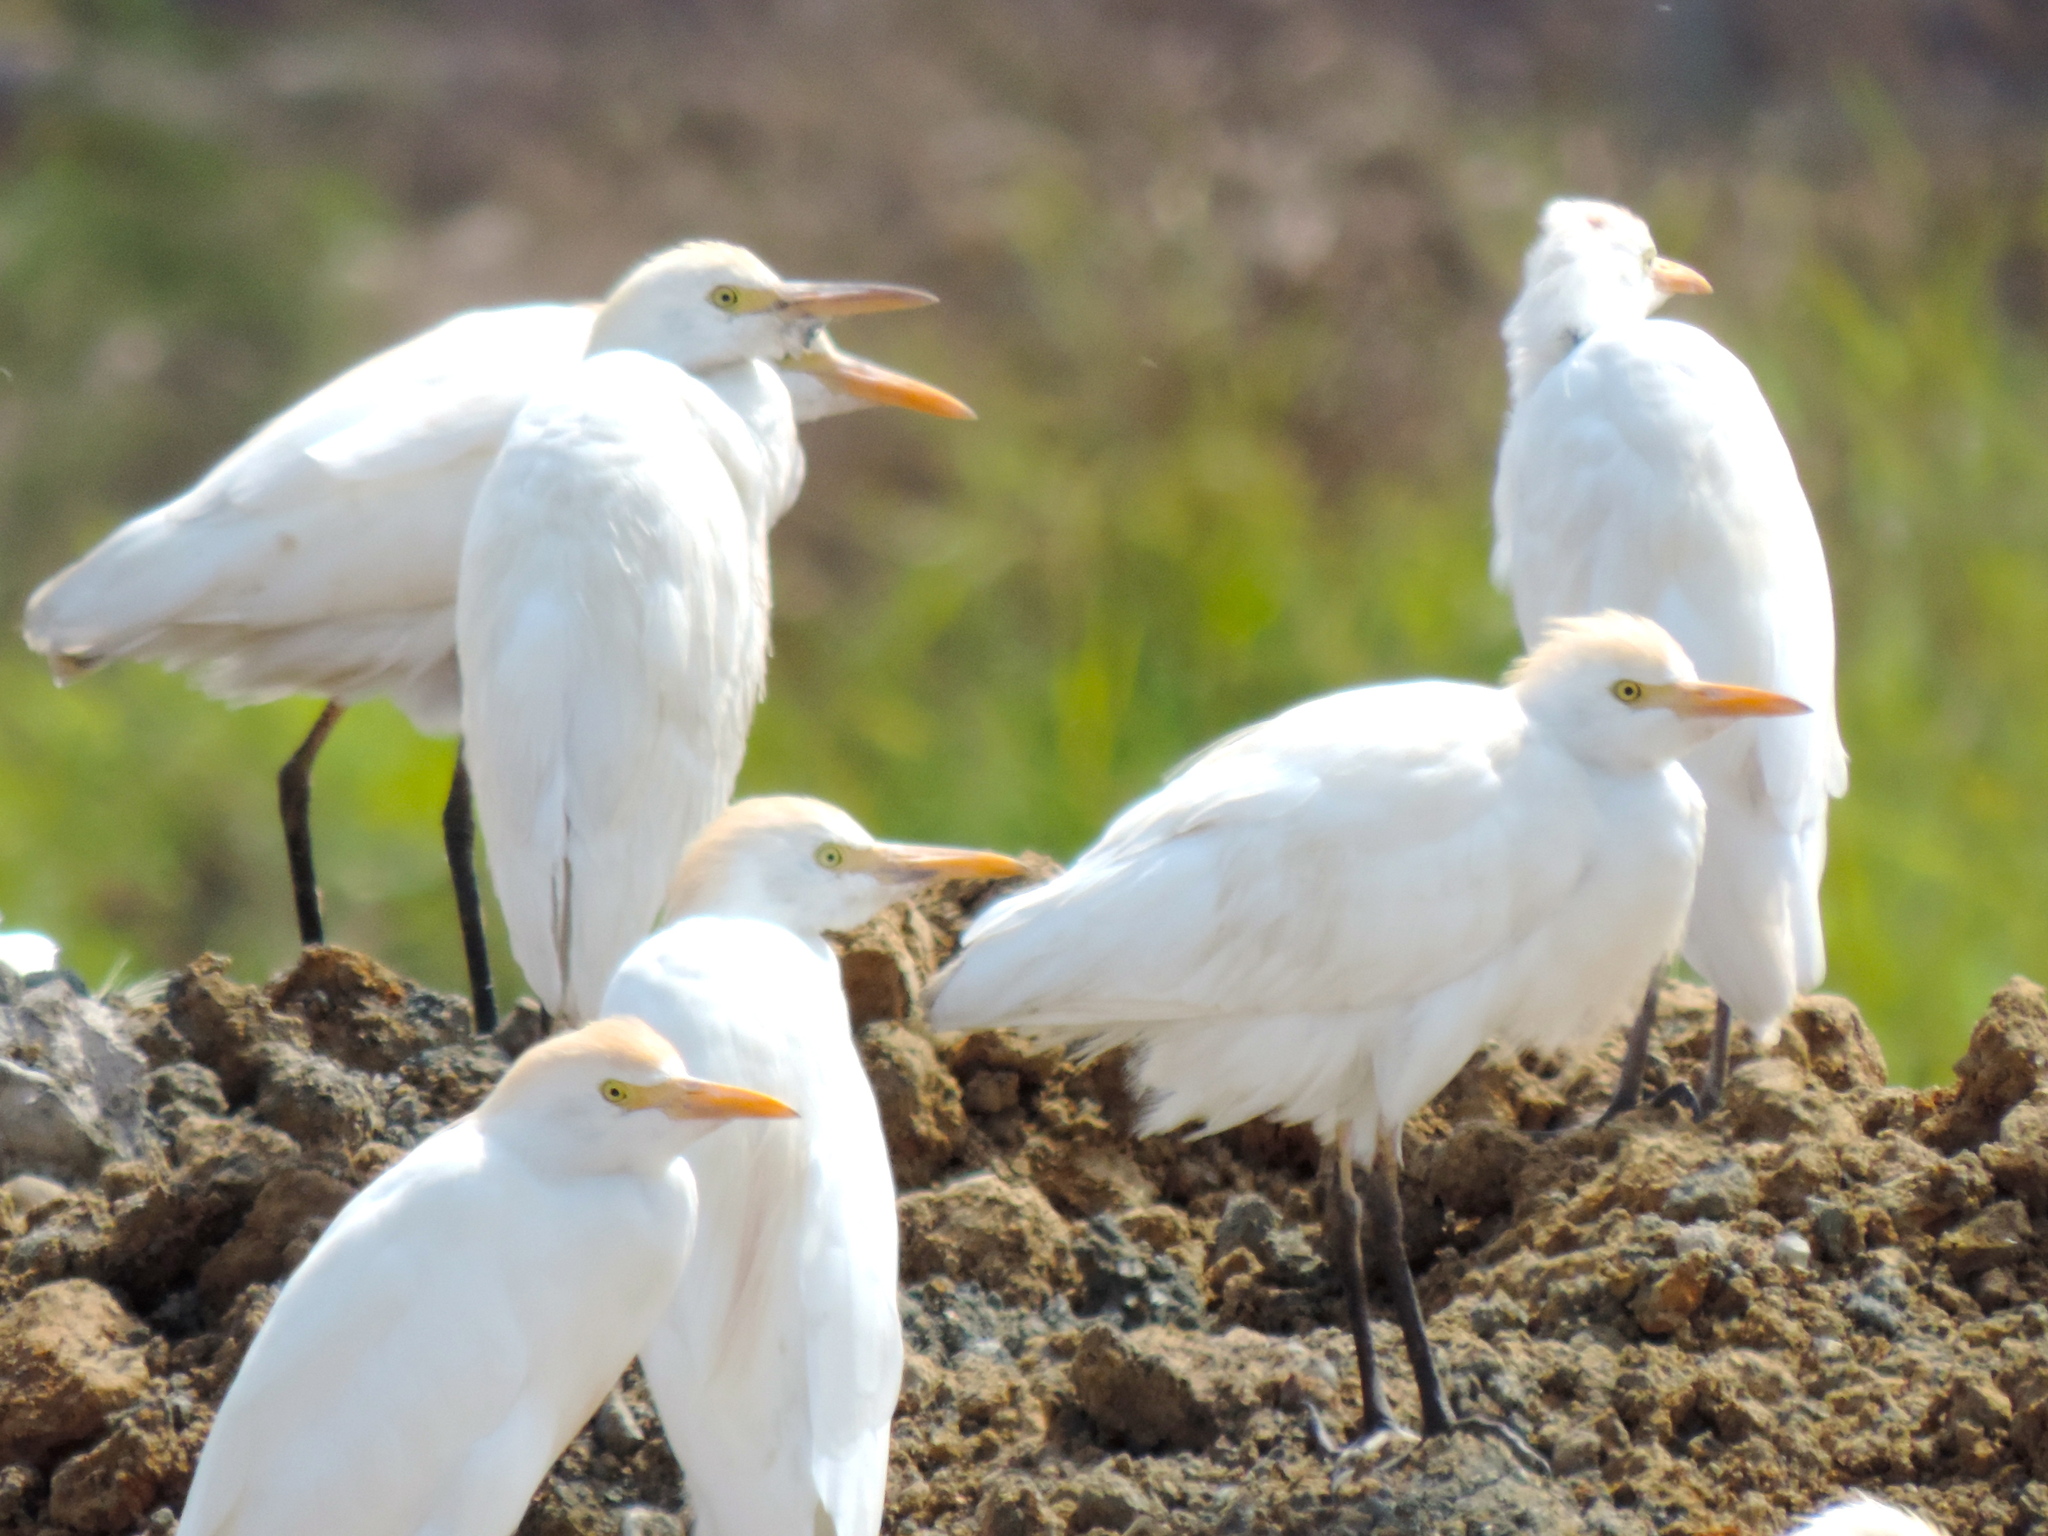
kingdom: Animalia
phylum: Chordata
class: Aves
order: Pelecaniformes
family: Ardeidae
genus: Bubulcus
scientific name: Bubulcus ibis
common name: Cattle egret
